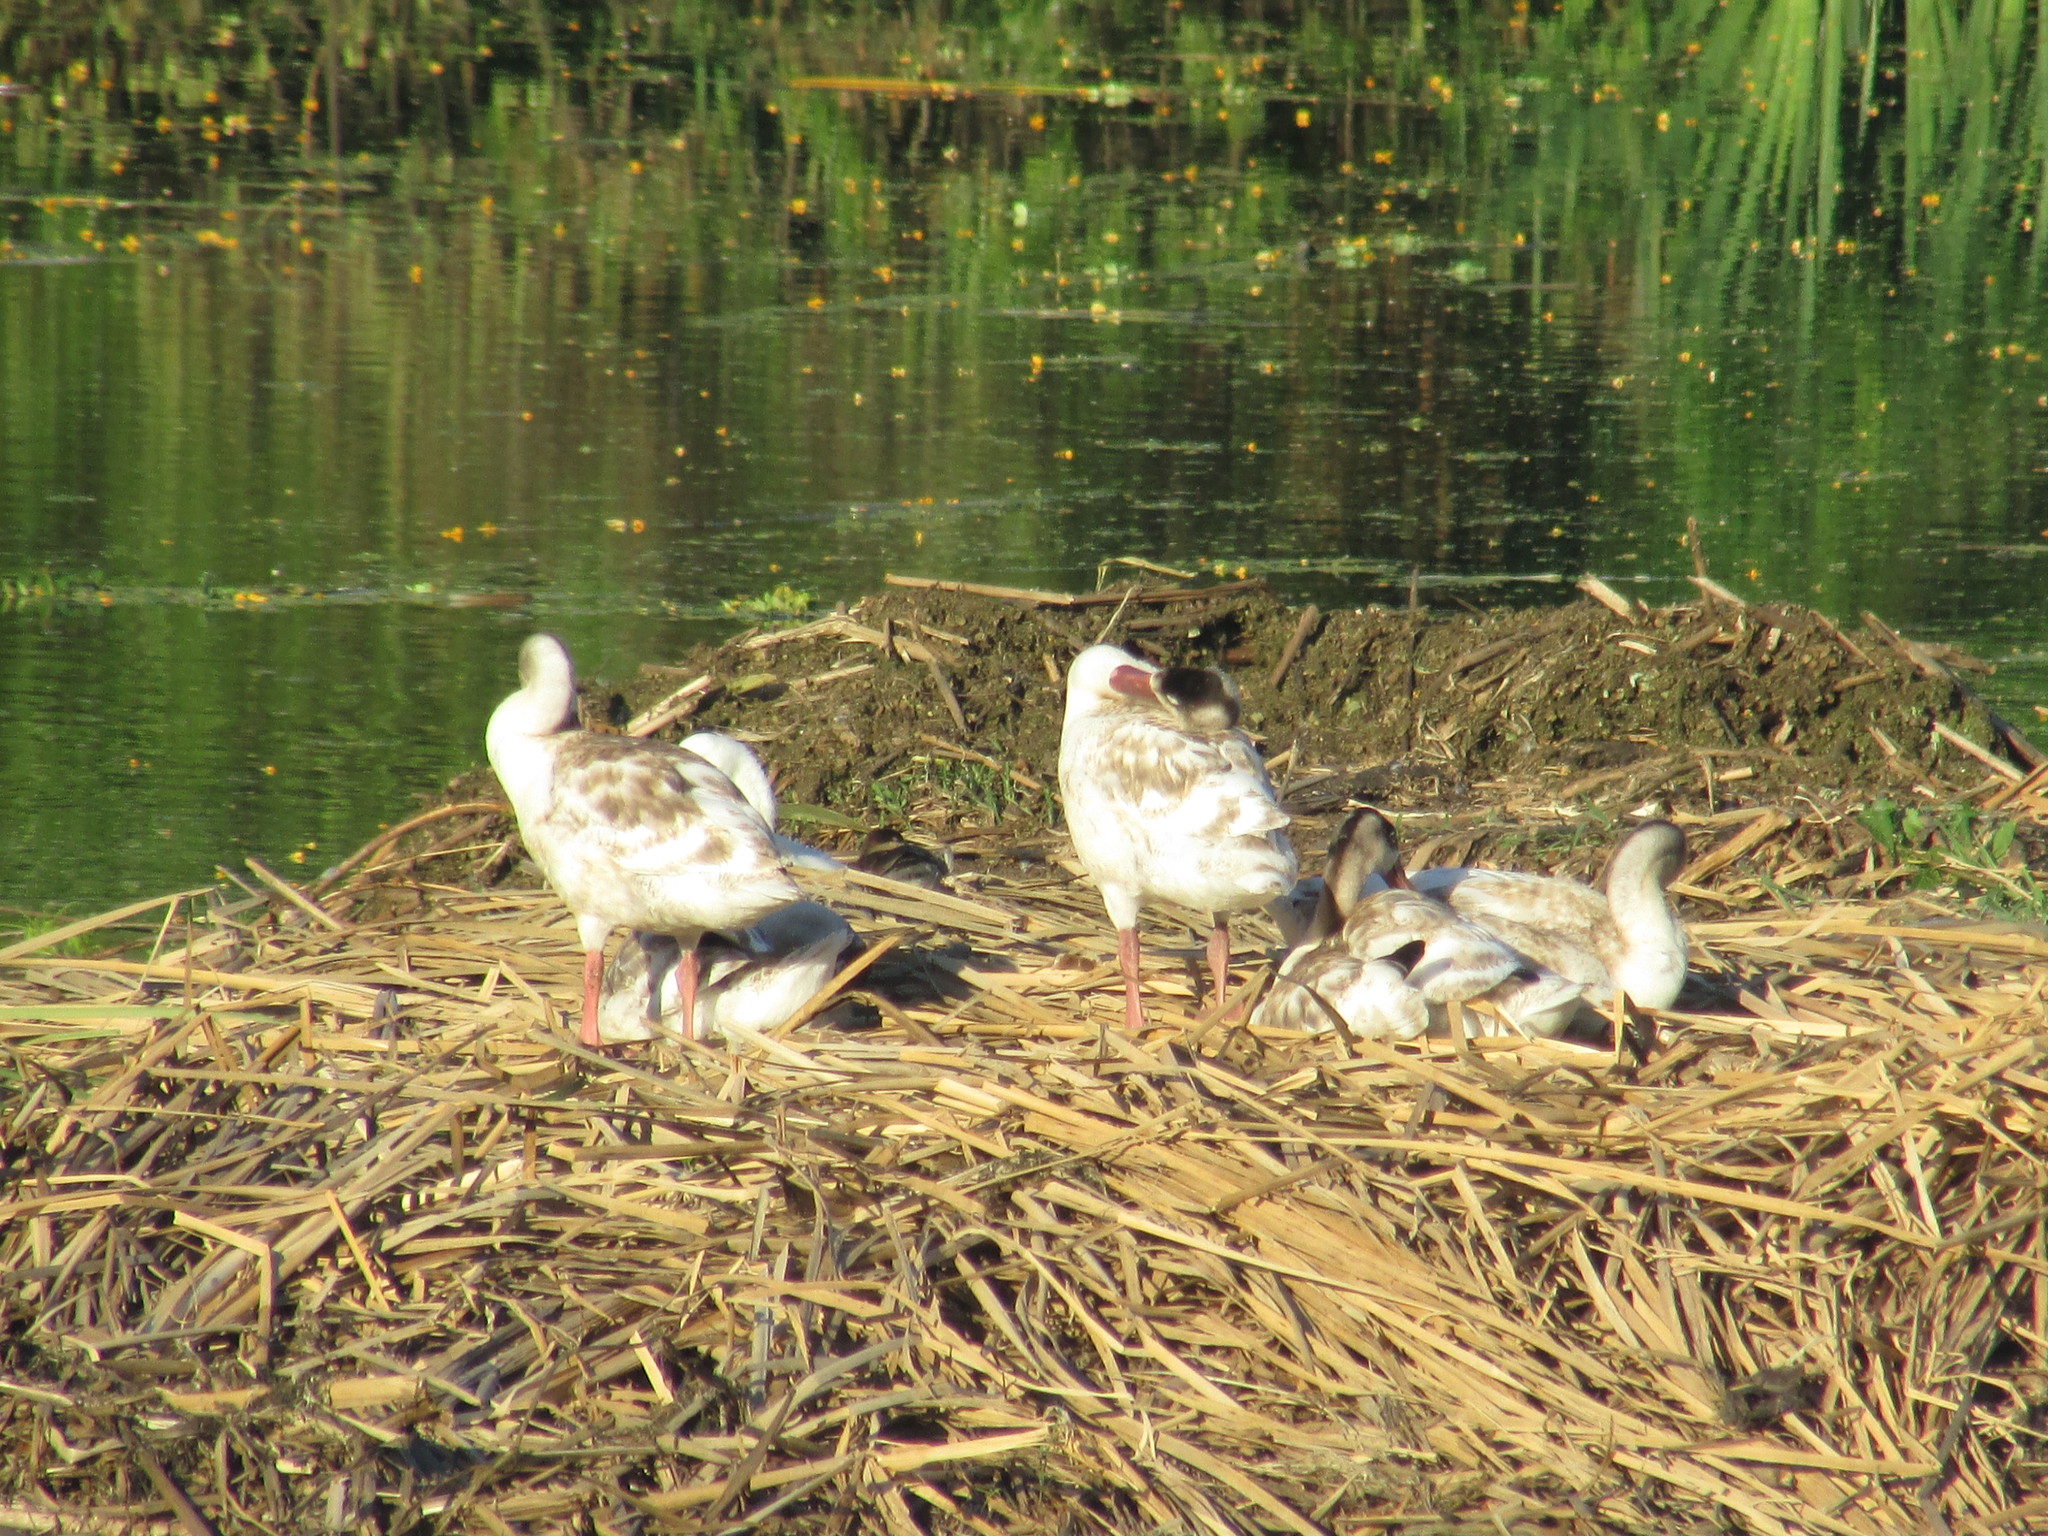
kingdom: Animalia
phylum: Chordata
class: Aves
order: Anseriformes
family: Anatidae
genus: Coscoroba
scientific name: Coscoroba coscoroba
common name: Coscoroba swan
